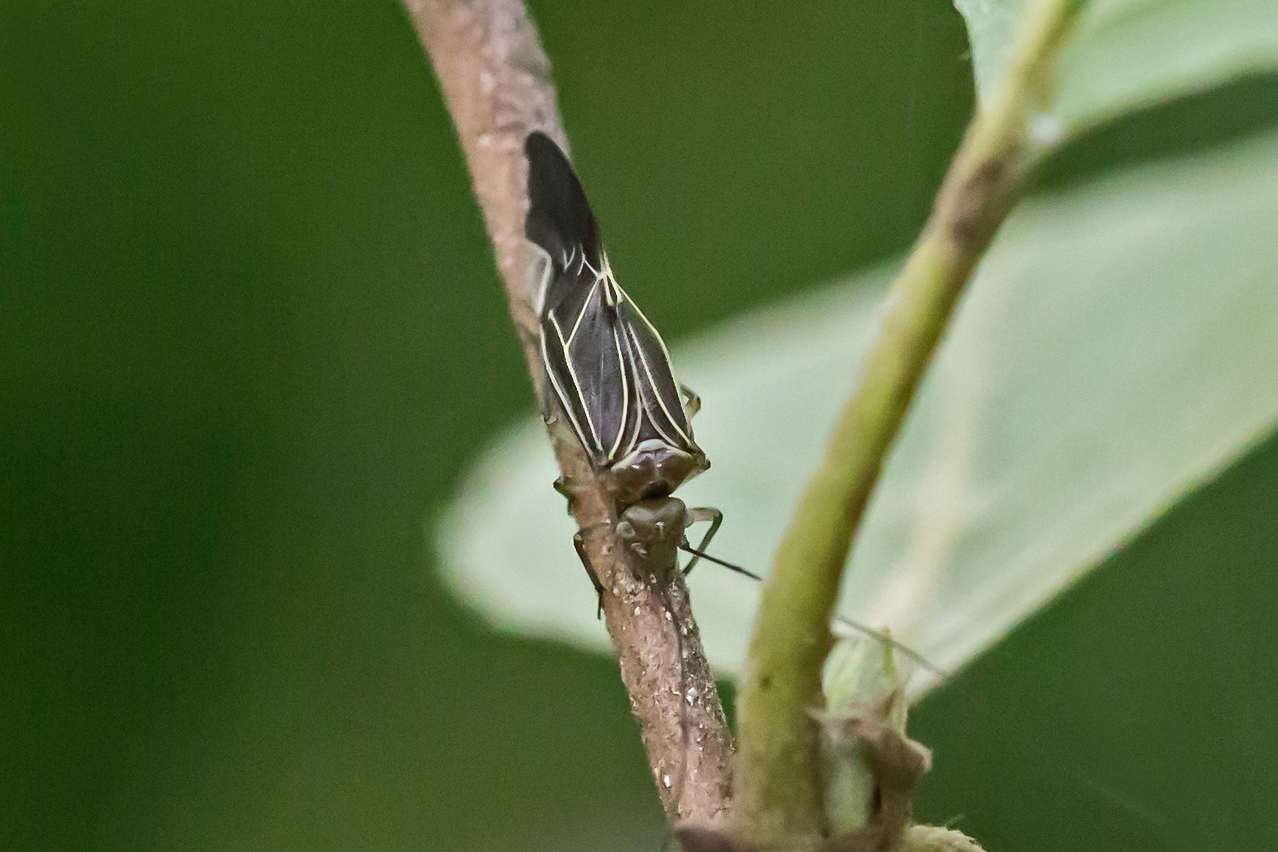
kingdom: Animalia
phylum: Arthropoda
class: Insecta
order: Psocodea
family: Psocidae
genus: Cerastipsocus
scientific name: Cerastipsocus venosus
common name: Tree cattle
